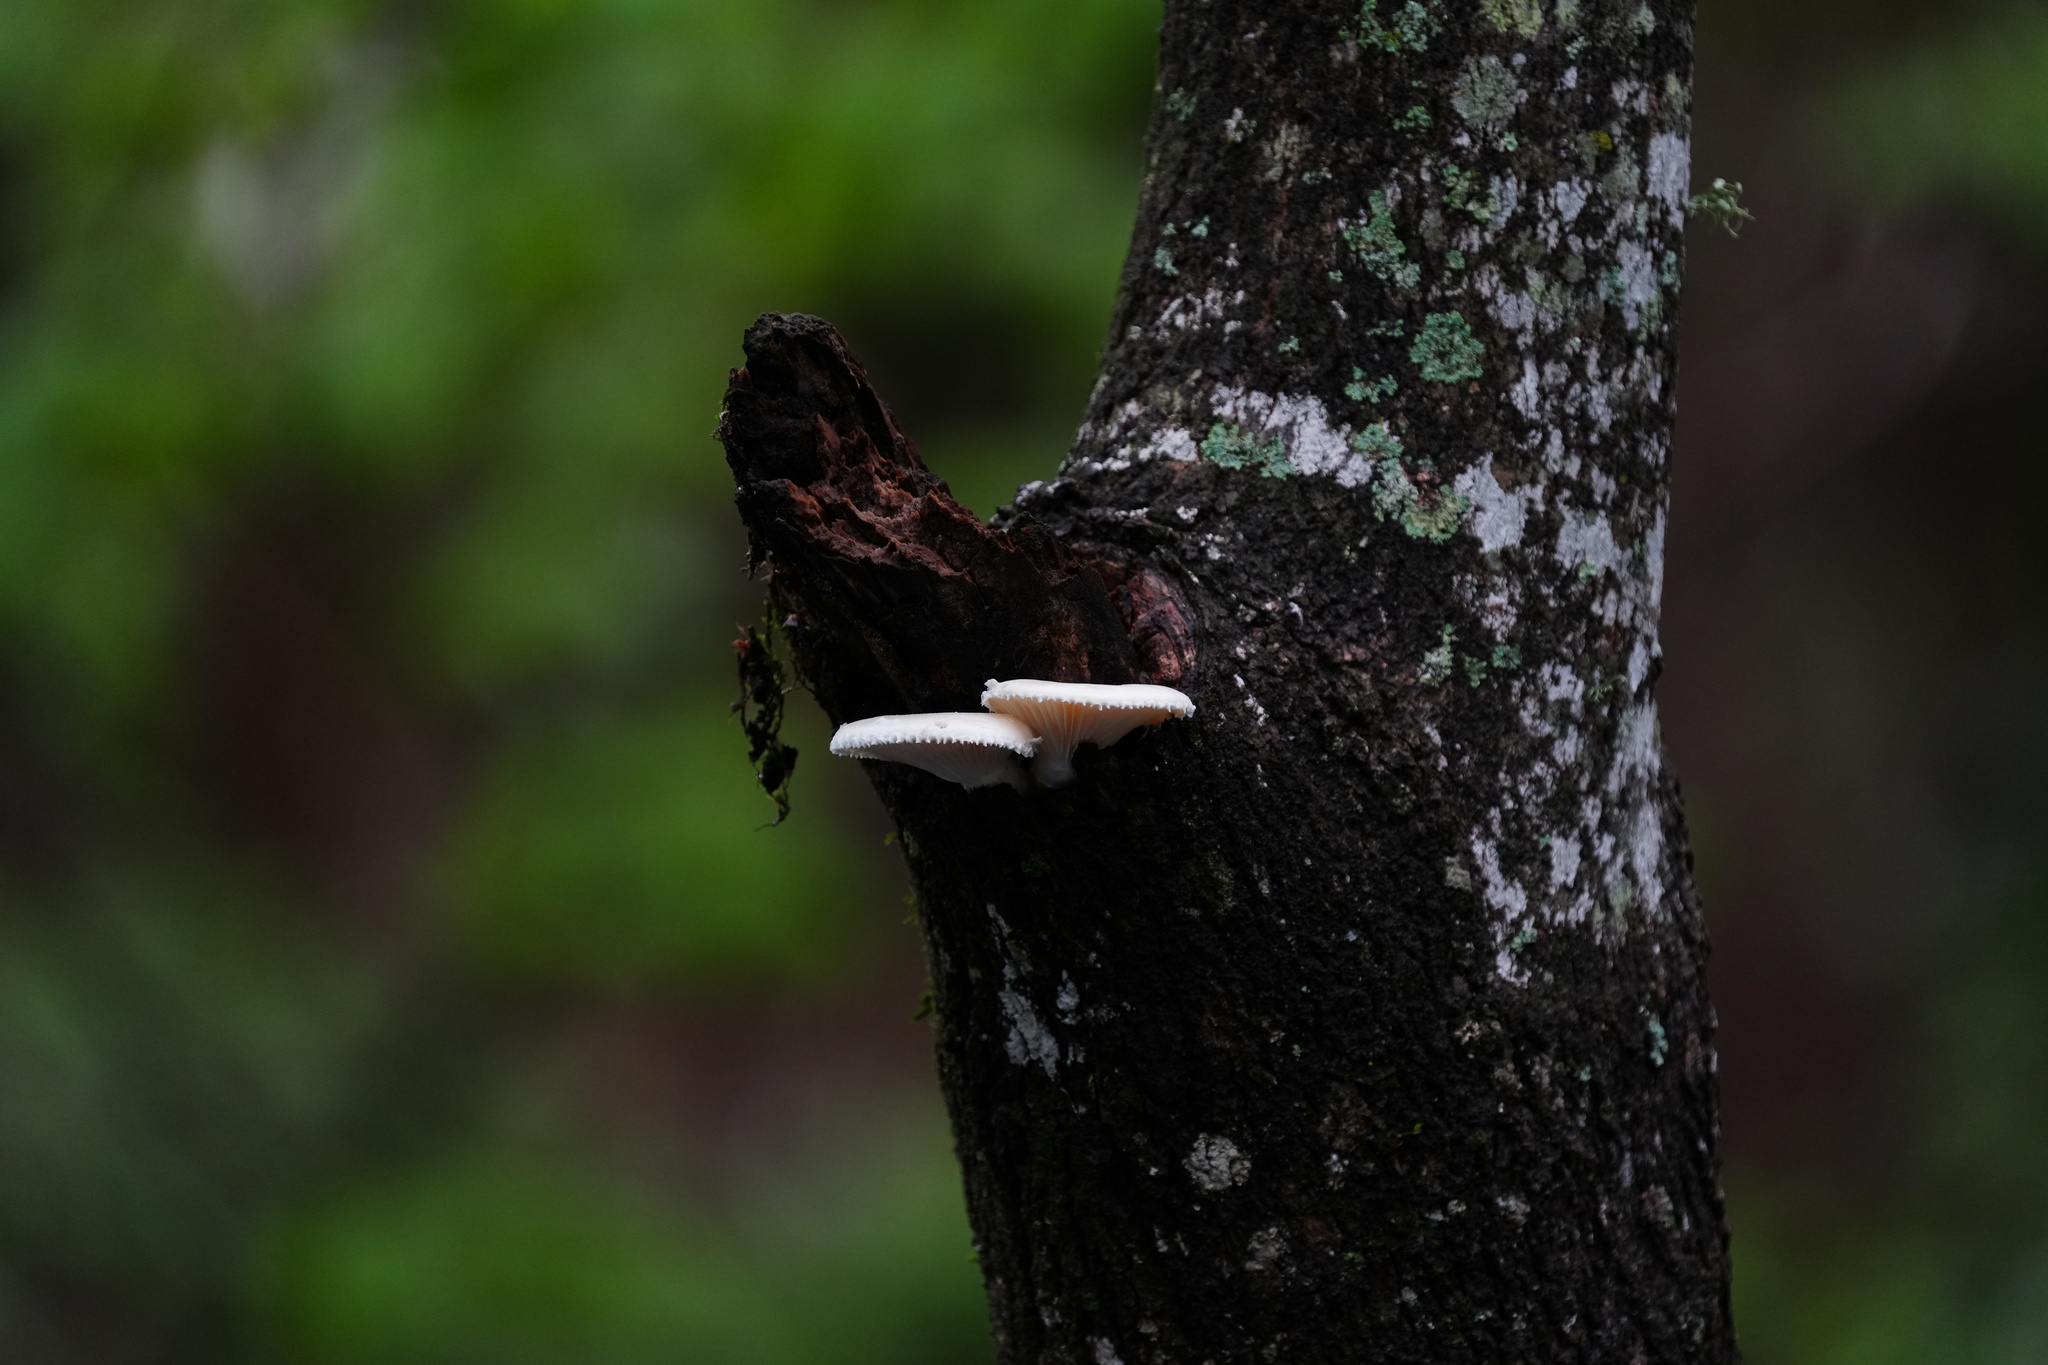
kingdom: Fungi
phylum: Basidiomycota
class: Agaricomycetes
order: Polyporales
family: Polyporaceae
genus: Lentinus
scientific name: Lentinus levis
